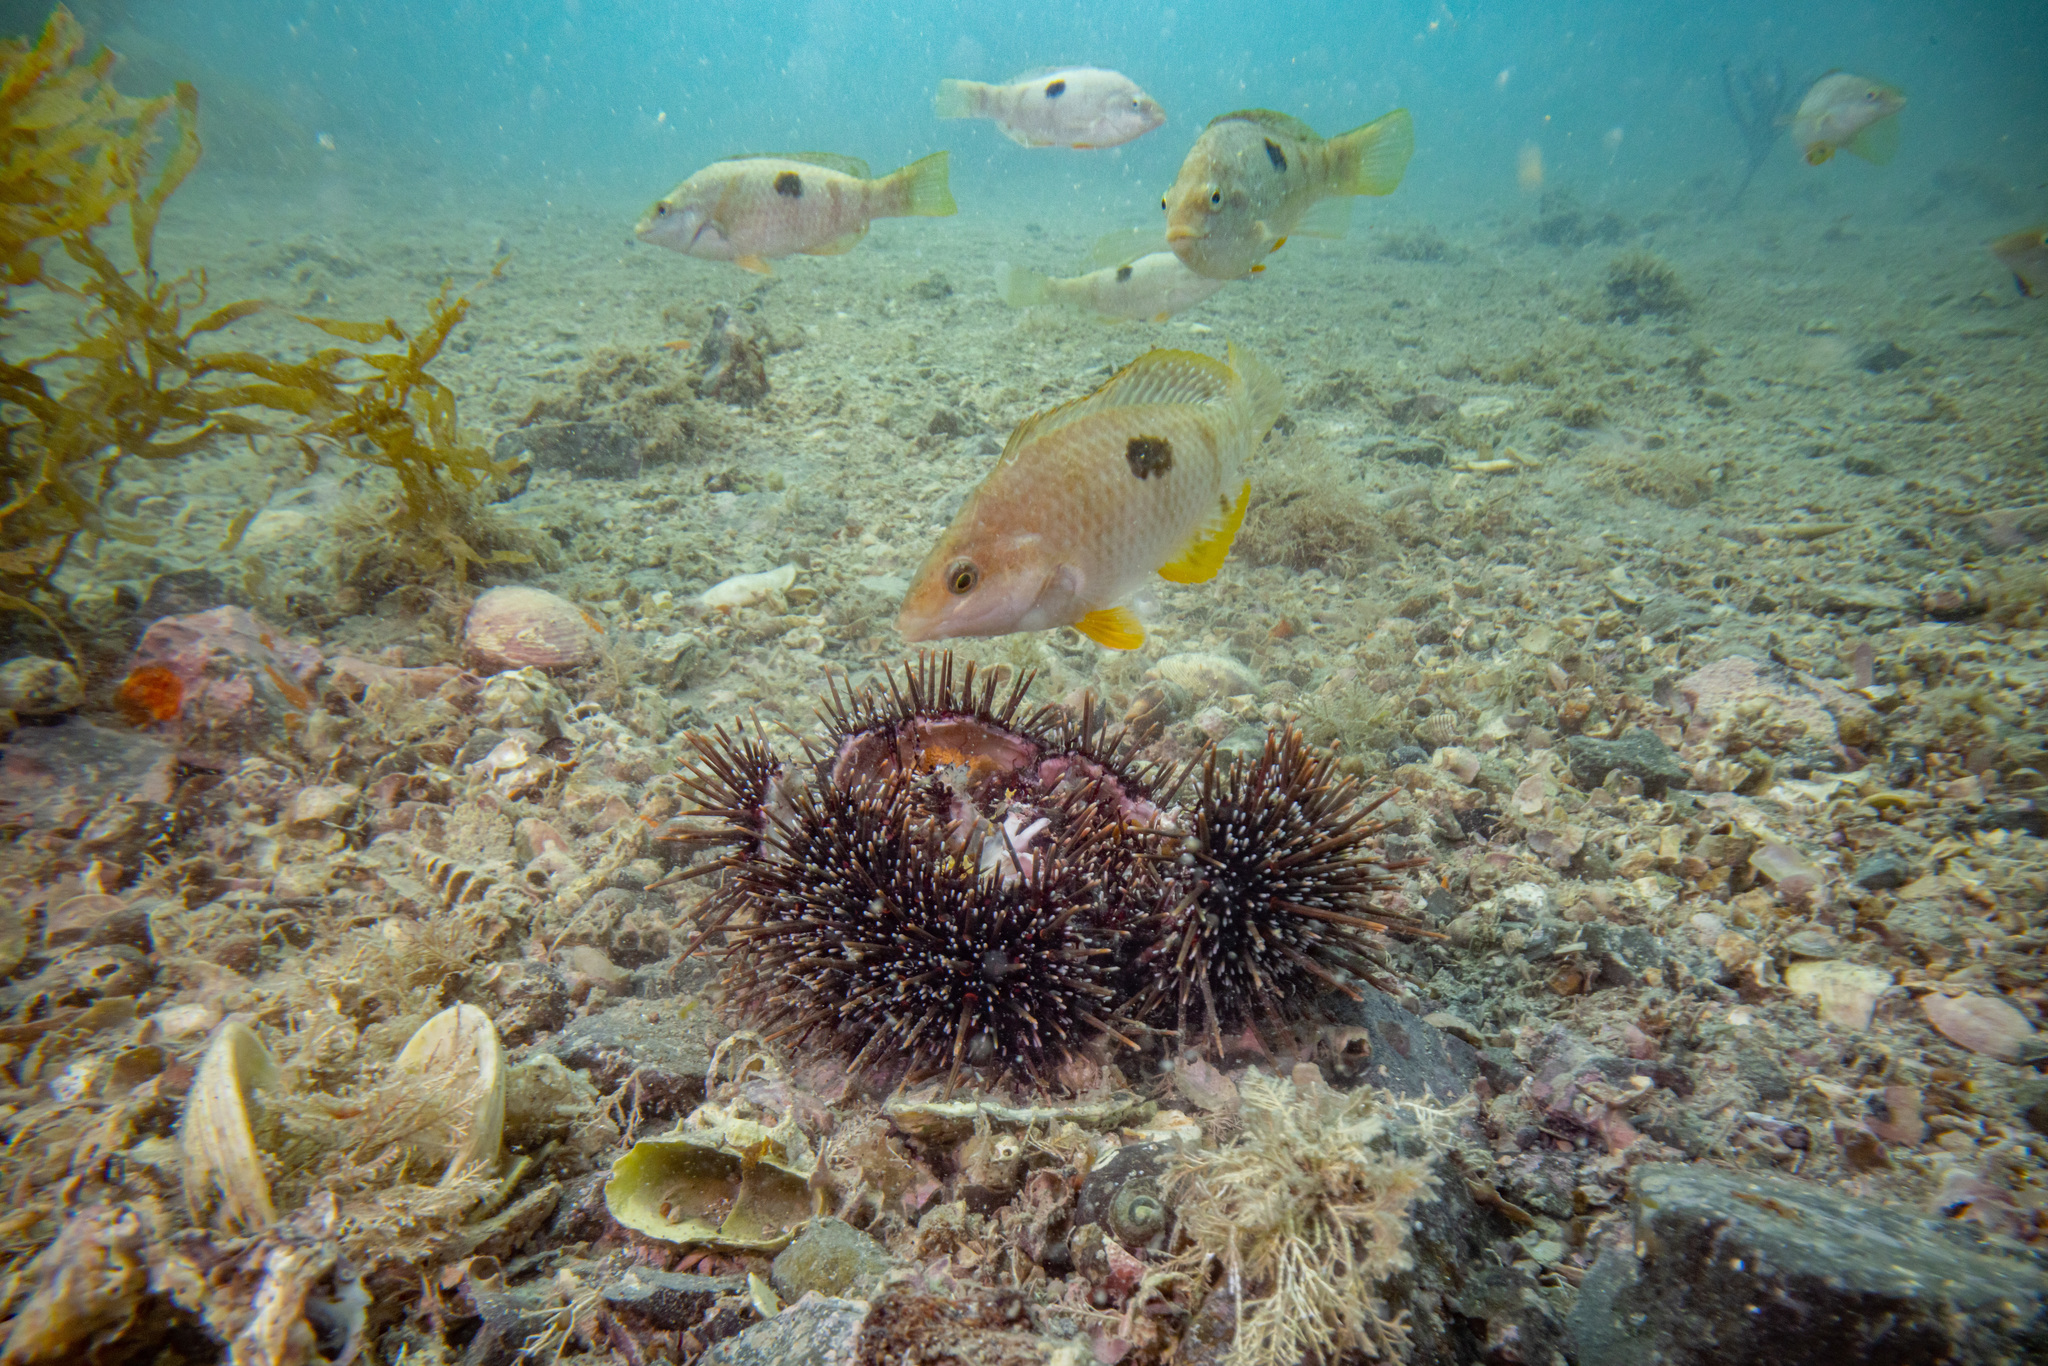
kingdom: Animalia
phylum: Chordata
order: Perciformes
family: Labridae
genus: Notolabrus
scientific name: Notolabrus celidotus
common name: Spotty
